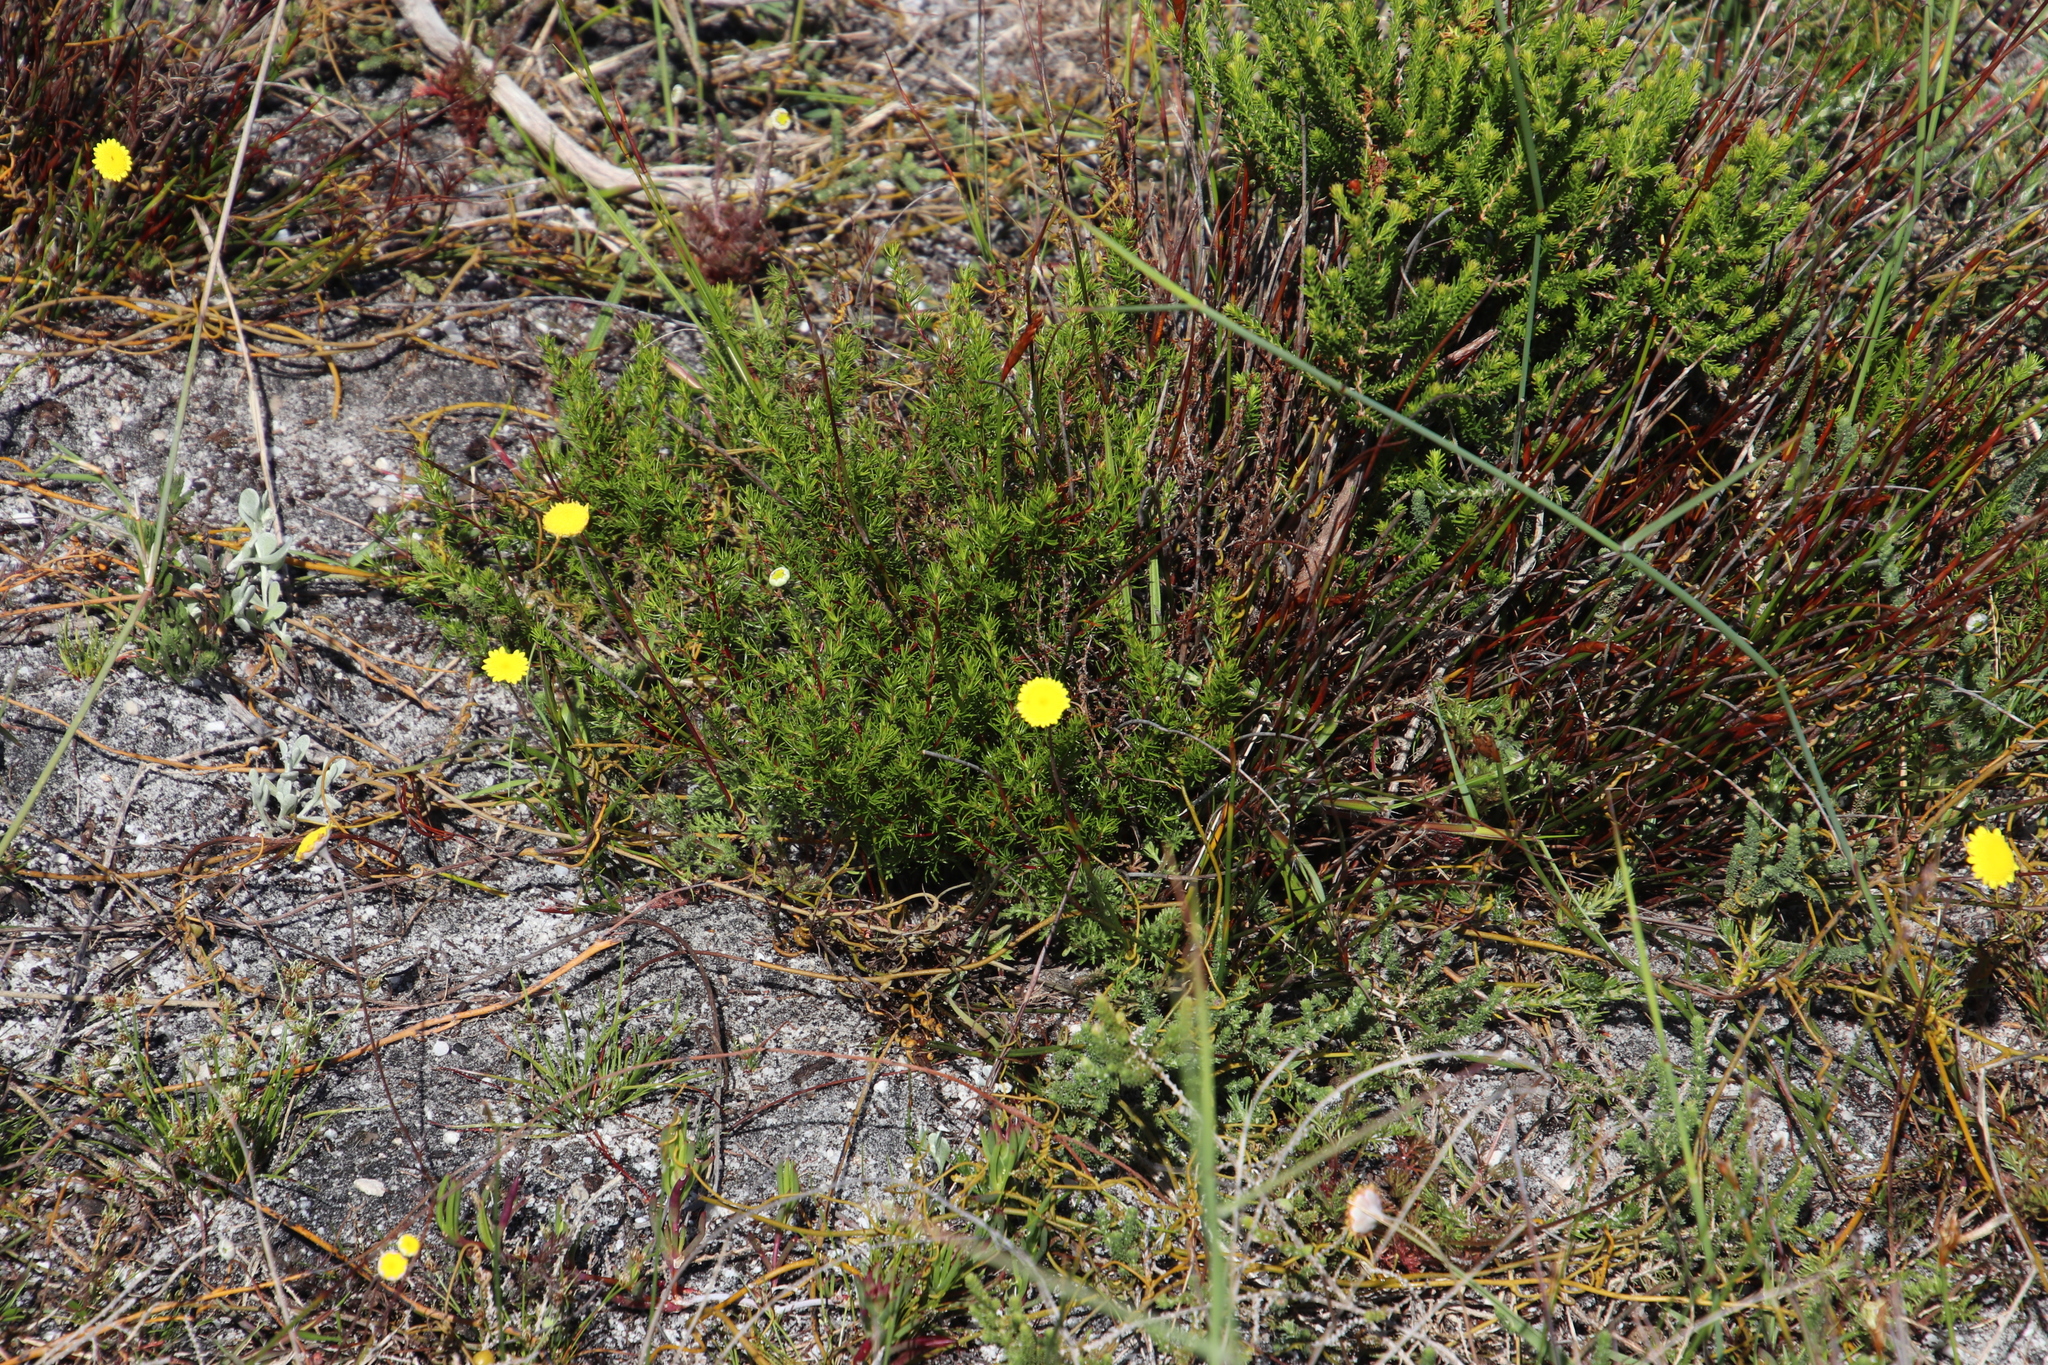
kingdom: Plantae
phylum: Tracheophyta
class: Magnoliopsida
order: Asterales
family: Asteraceae
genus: Cotula
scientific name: Cotula pruinosa
